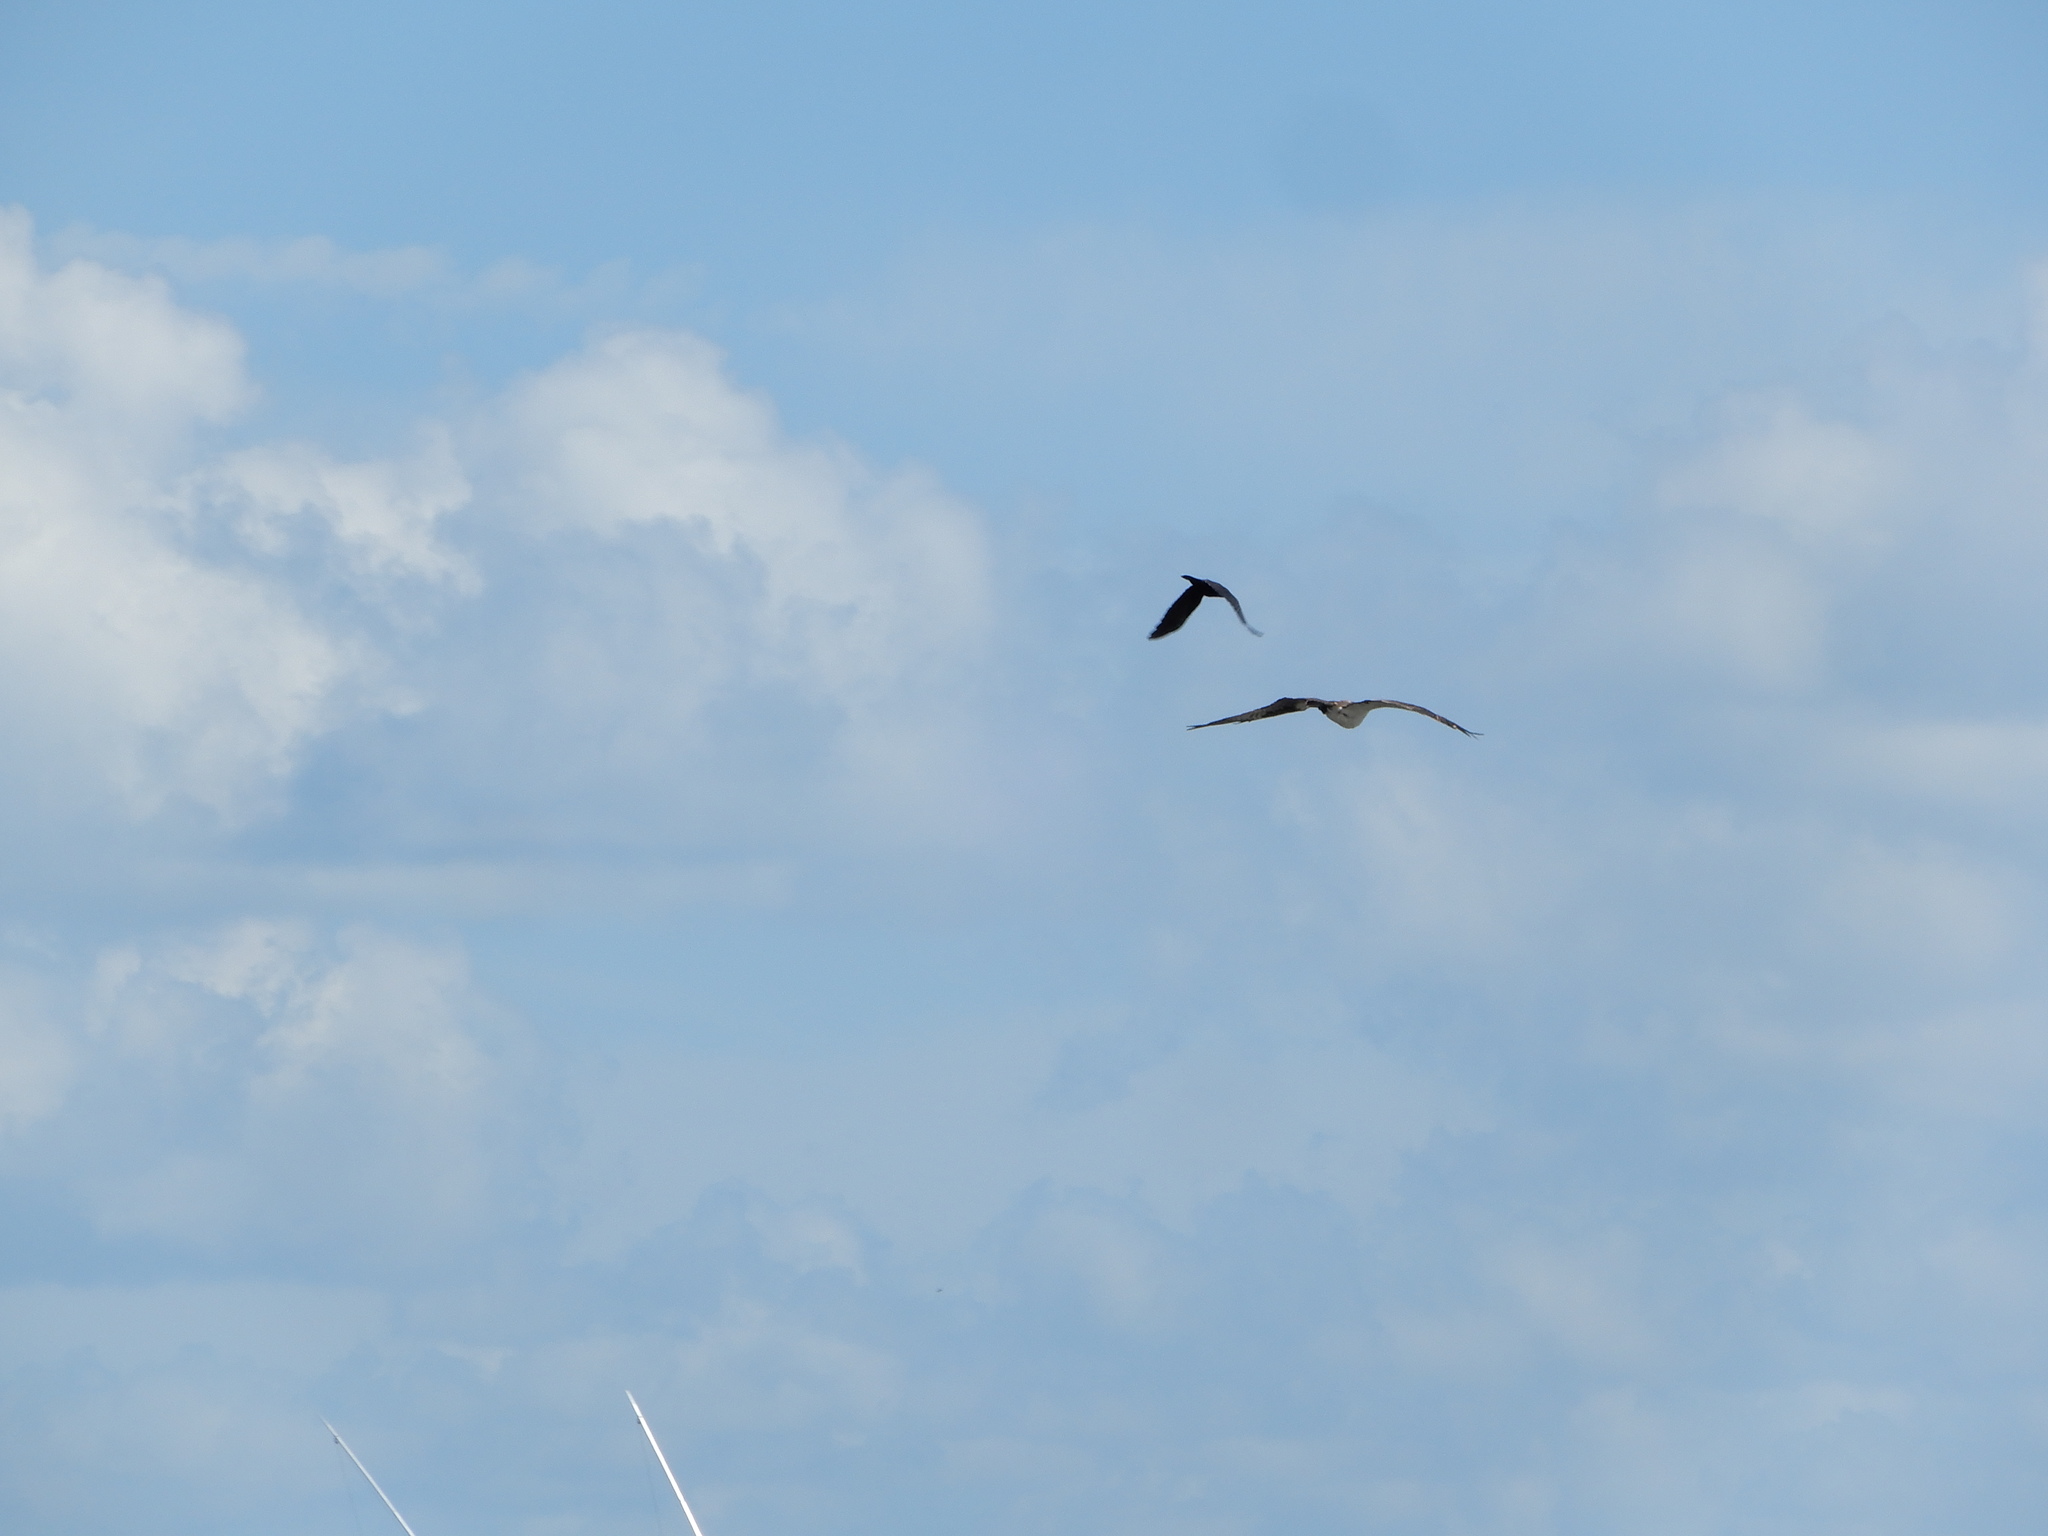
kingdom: Animalia
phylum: Chordata
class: Aves
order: Accipitriformes
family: Pandionidae
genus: Pandion
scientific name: Pandion haliaetus
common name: Osprey
